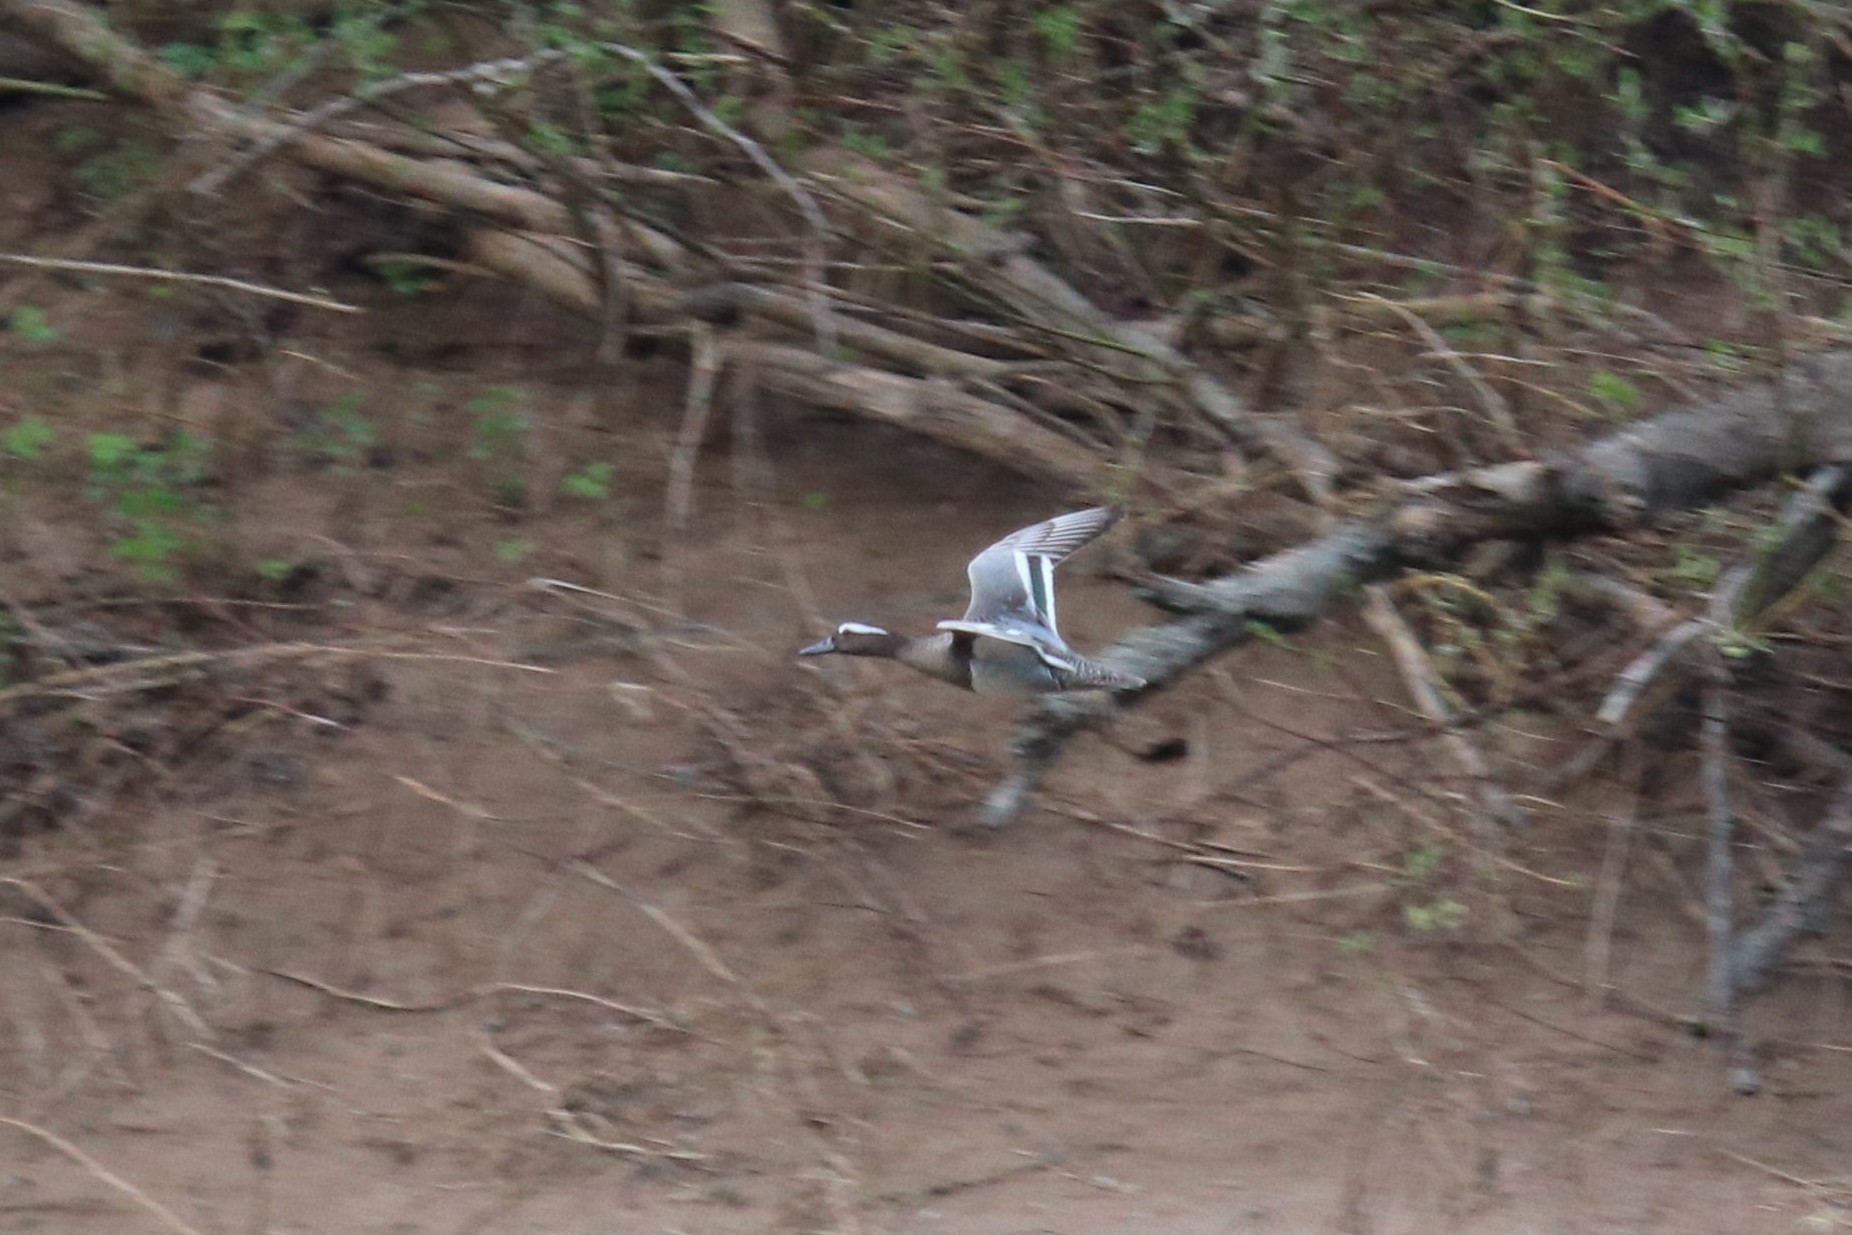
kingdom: Animalia
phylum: Chordata
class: Aves
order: Anseriformes
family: Anatidae
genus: Spatula
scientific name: Spatula querquedula
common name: Garganey
